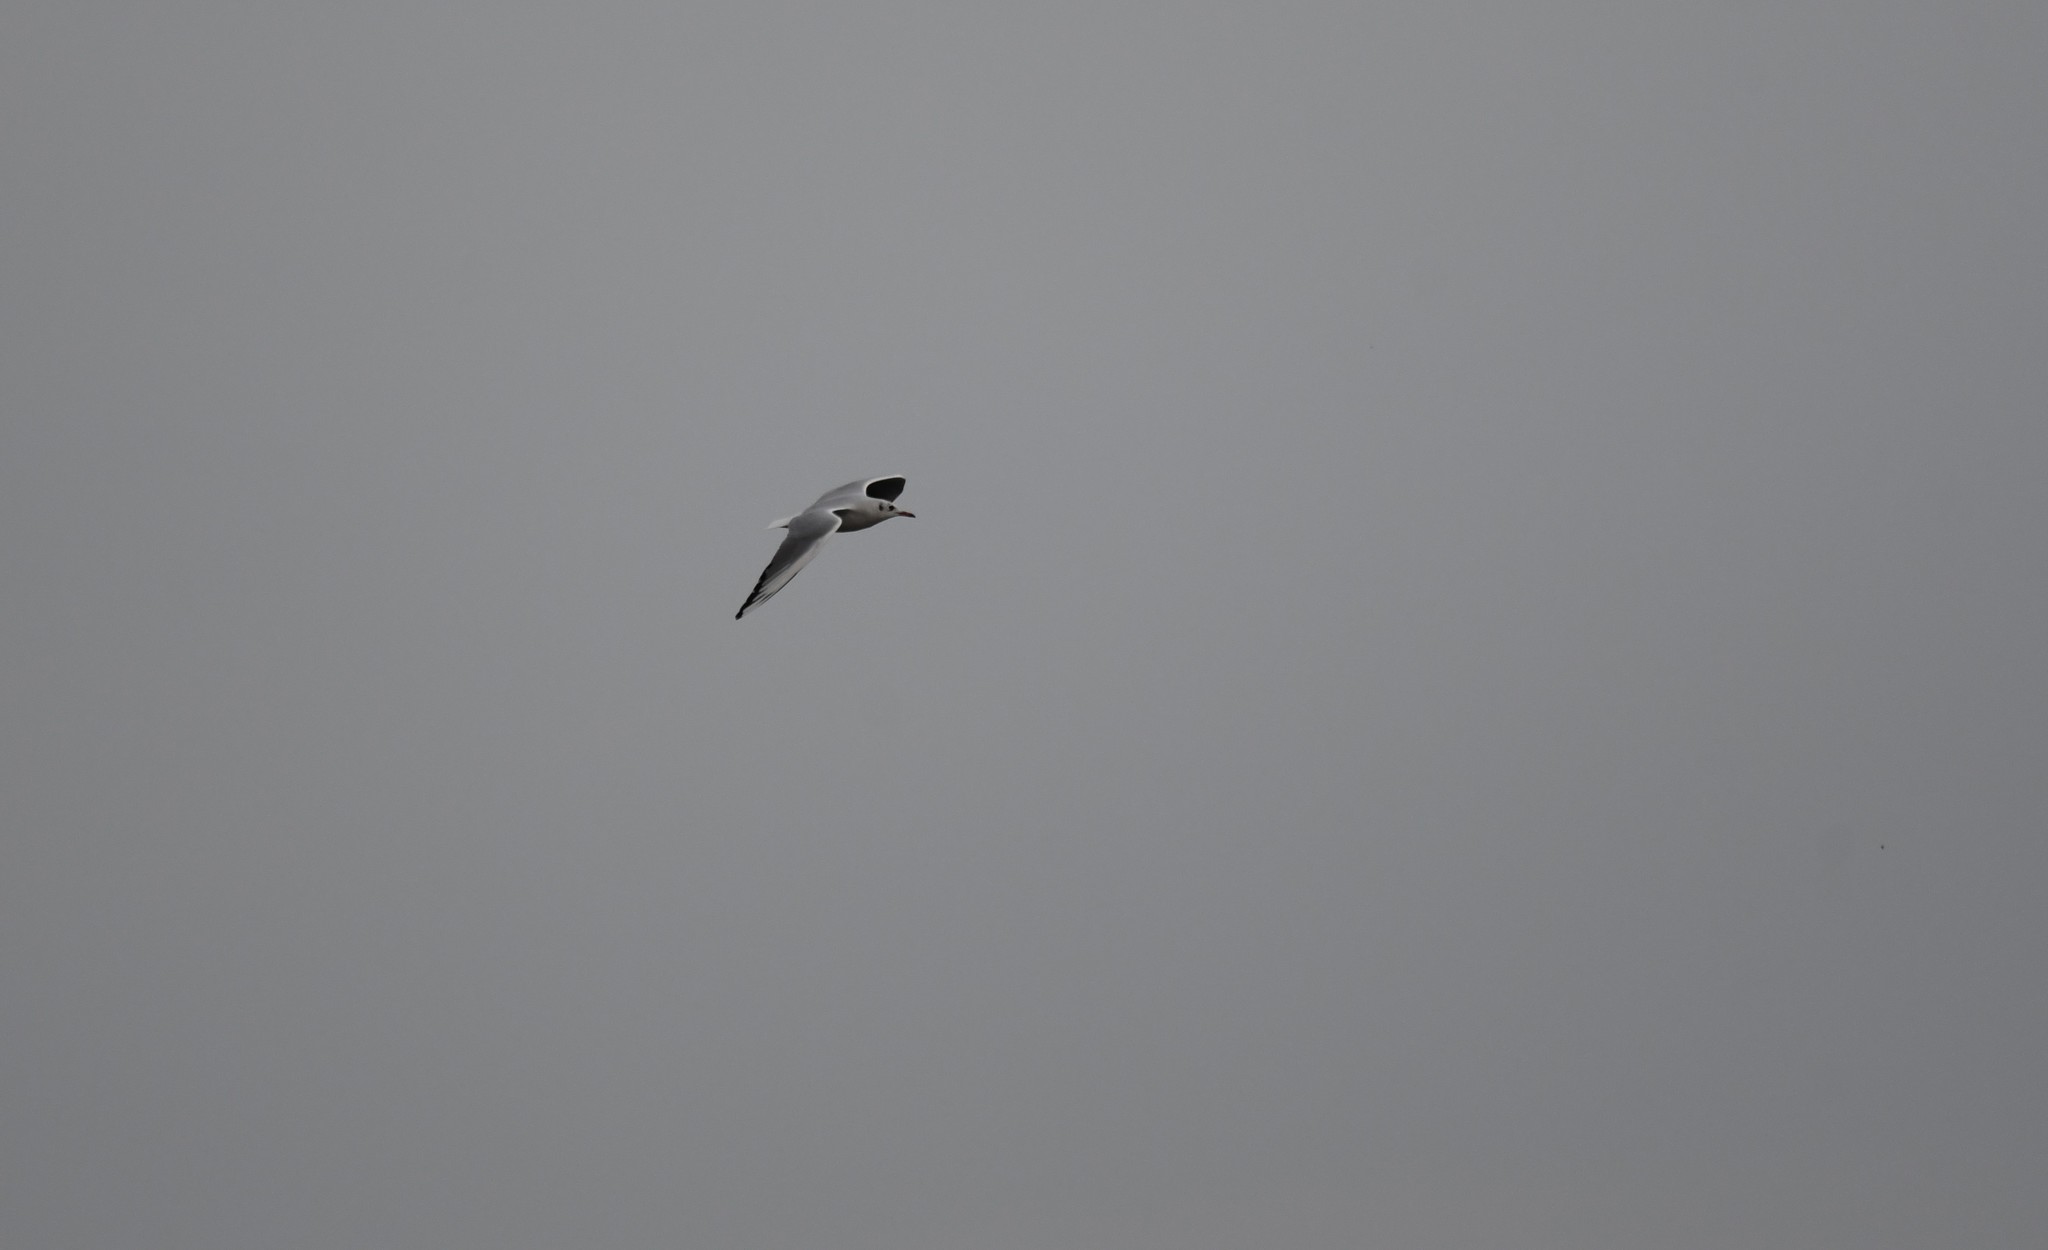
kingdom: Animalia
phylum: Chordata
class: Aves
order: Charadriiformes
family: Laridae
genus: Chroicocephalus
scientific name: Chroicocephalus ridibundus
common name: Black-headed gull
